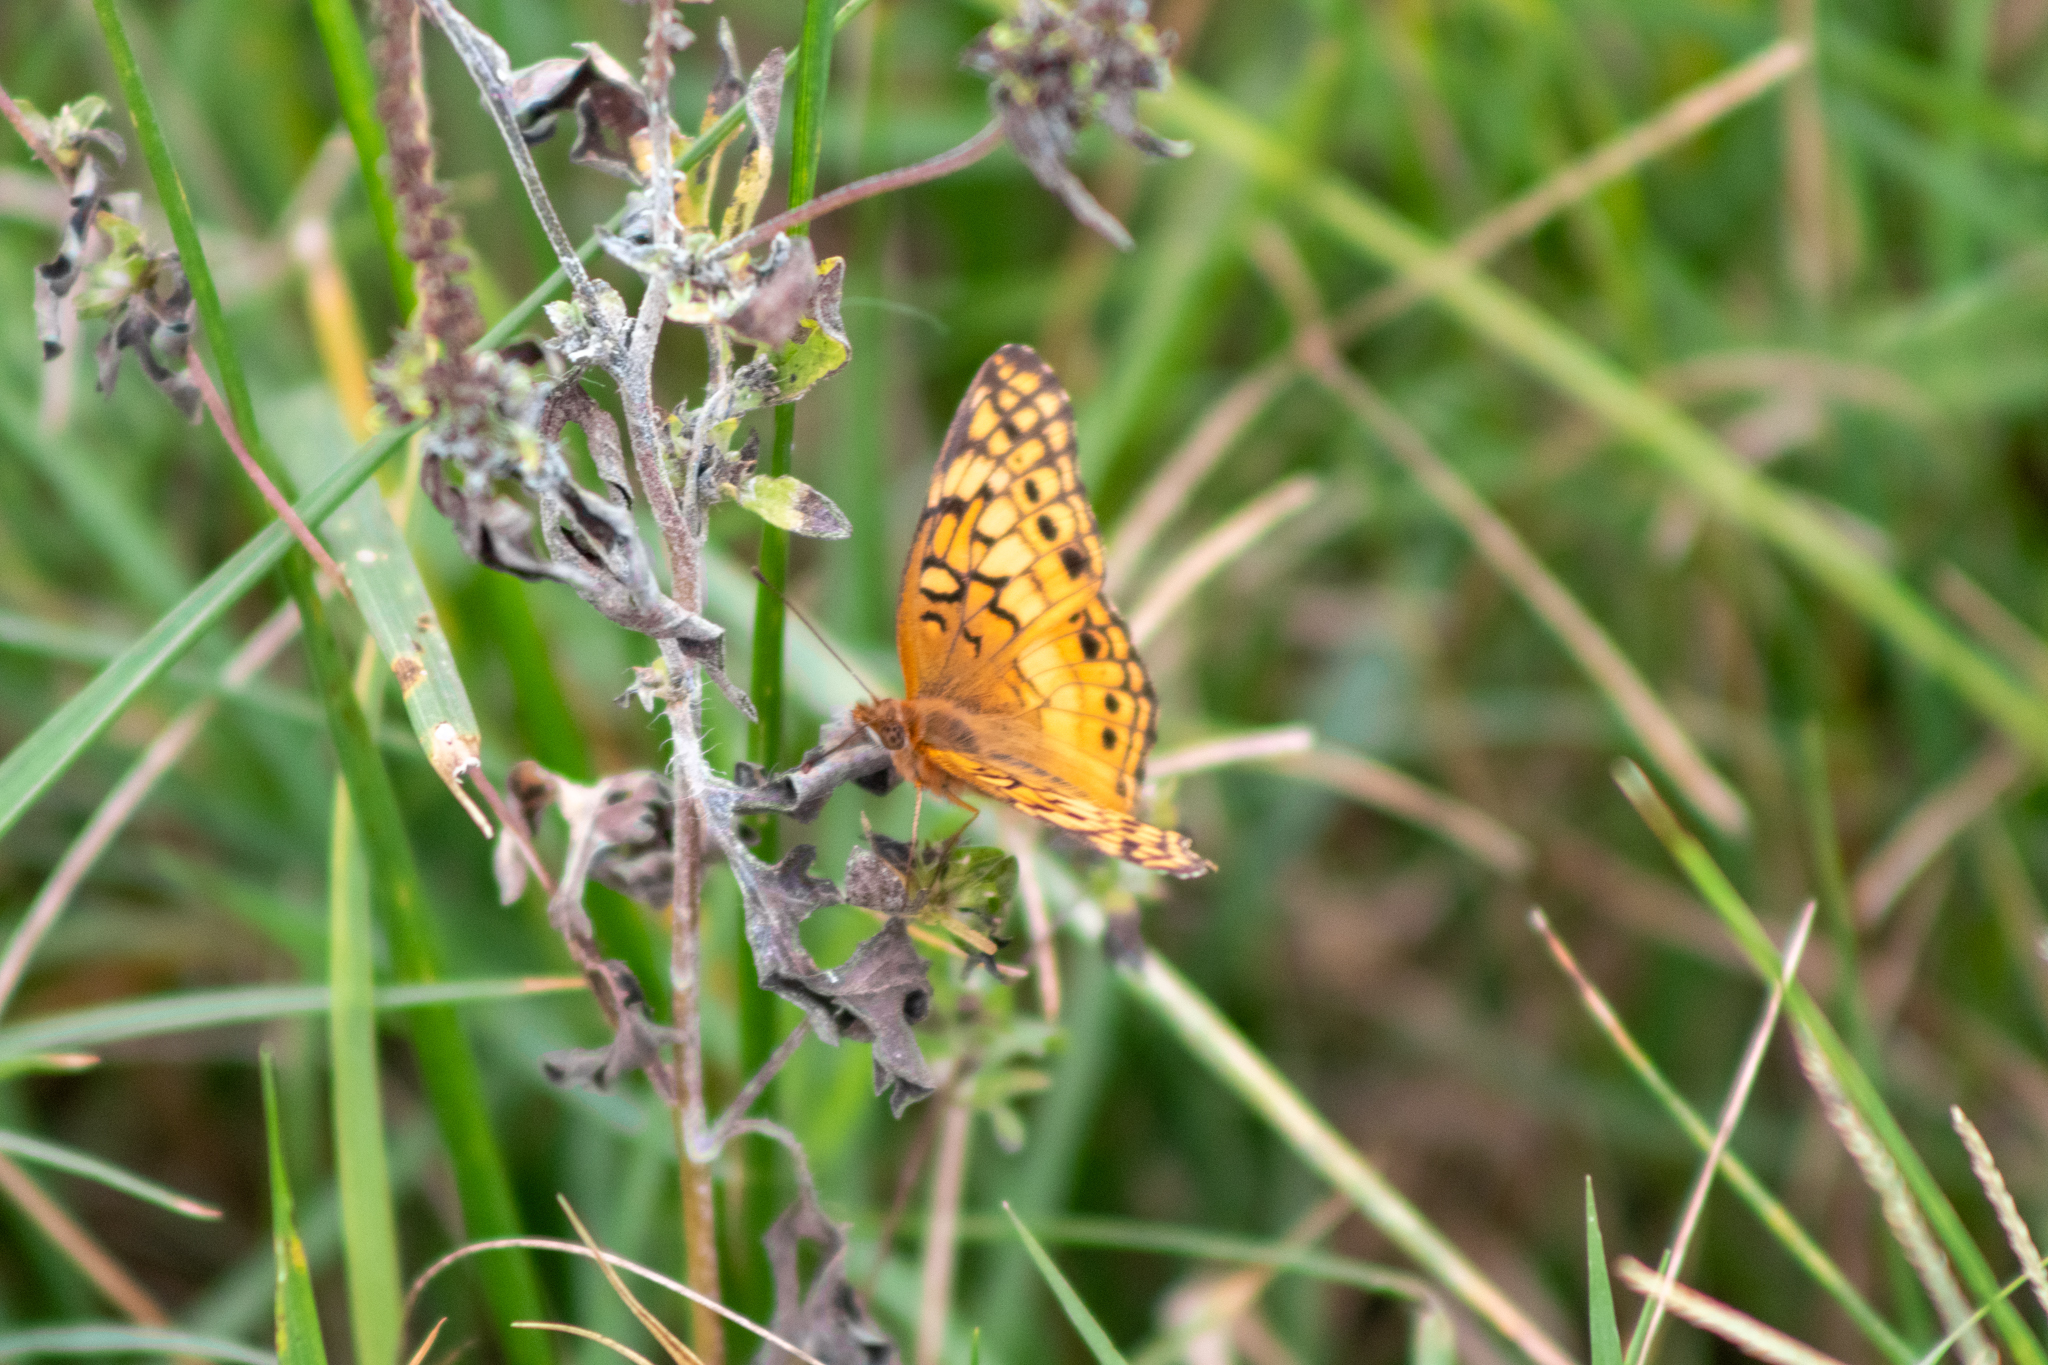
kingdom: Animalia
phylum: Arthropoda
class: Insecta
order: Lepidoptera
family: Nymphalidae
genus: Euptoieta
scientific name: Euptoieta claudia
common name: Variegated fritillary
